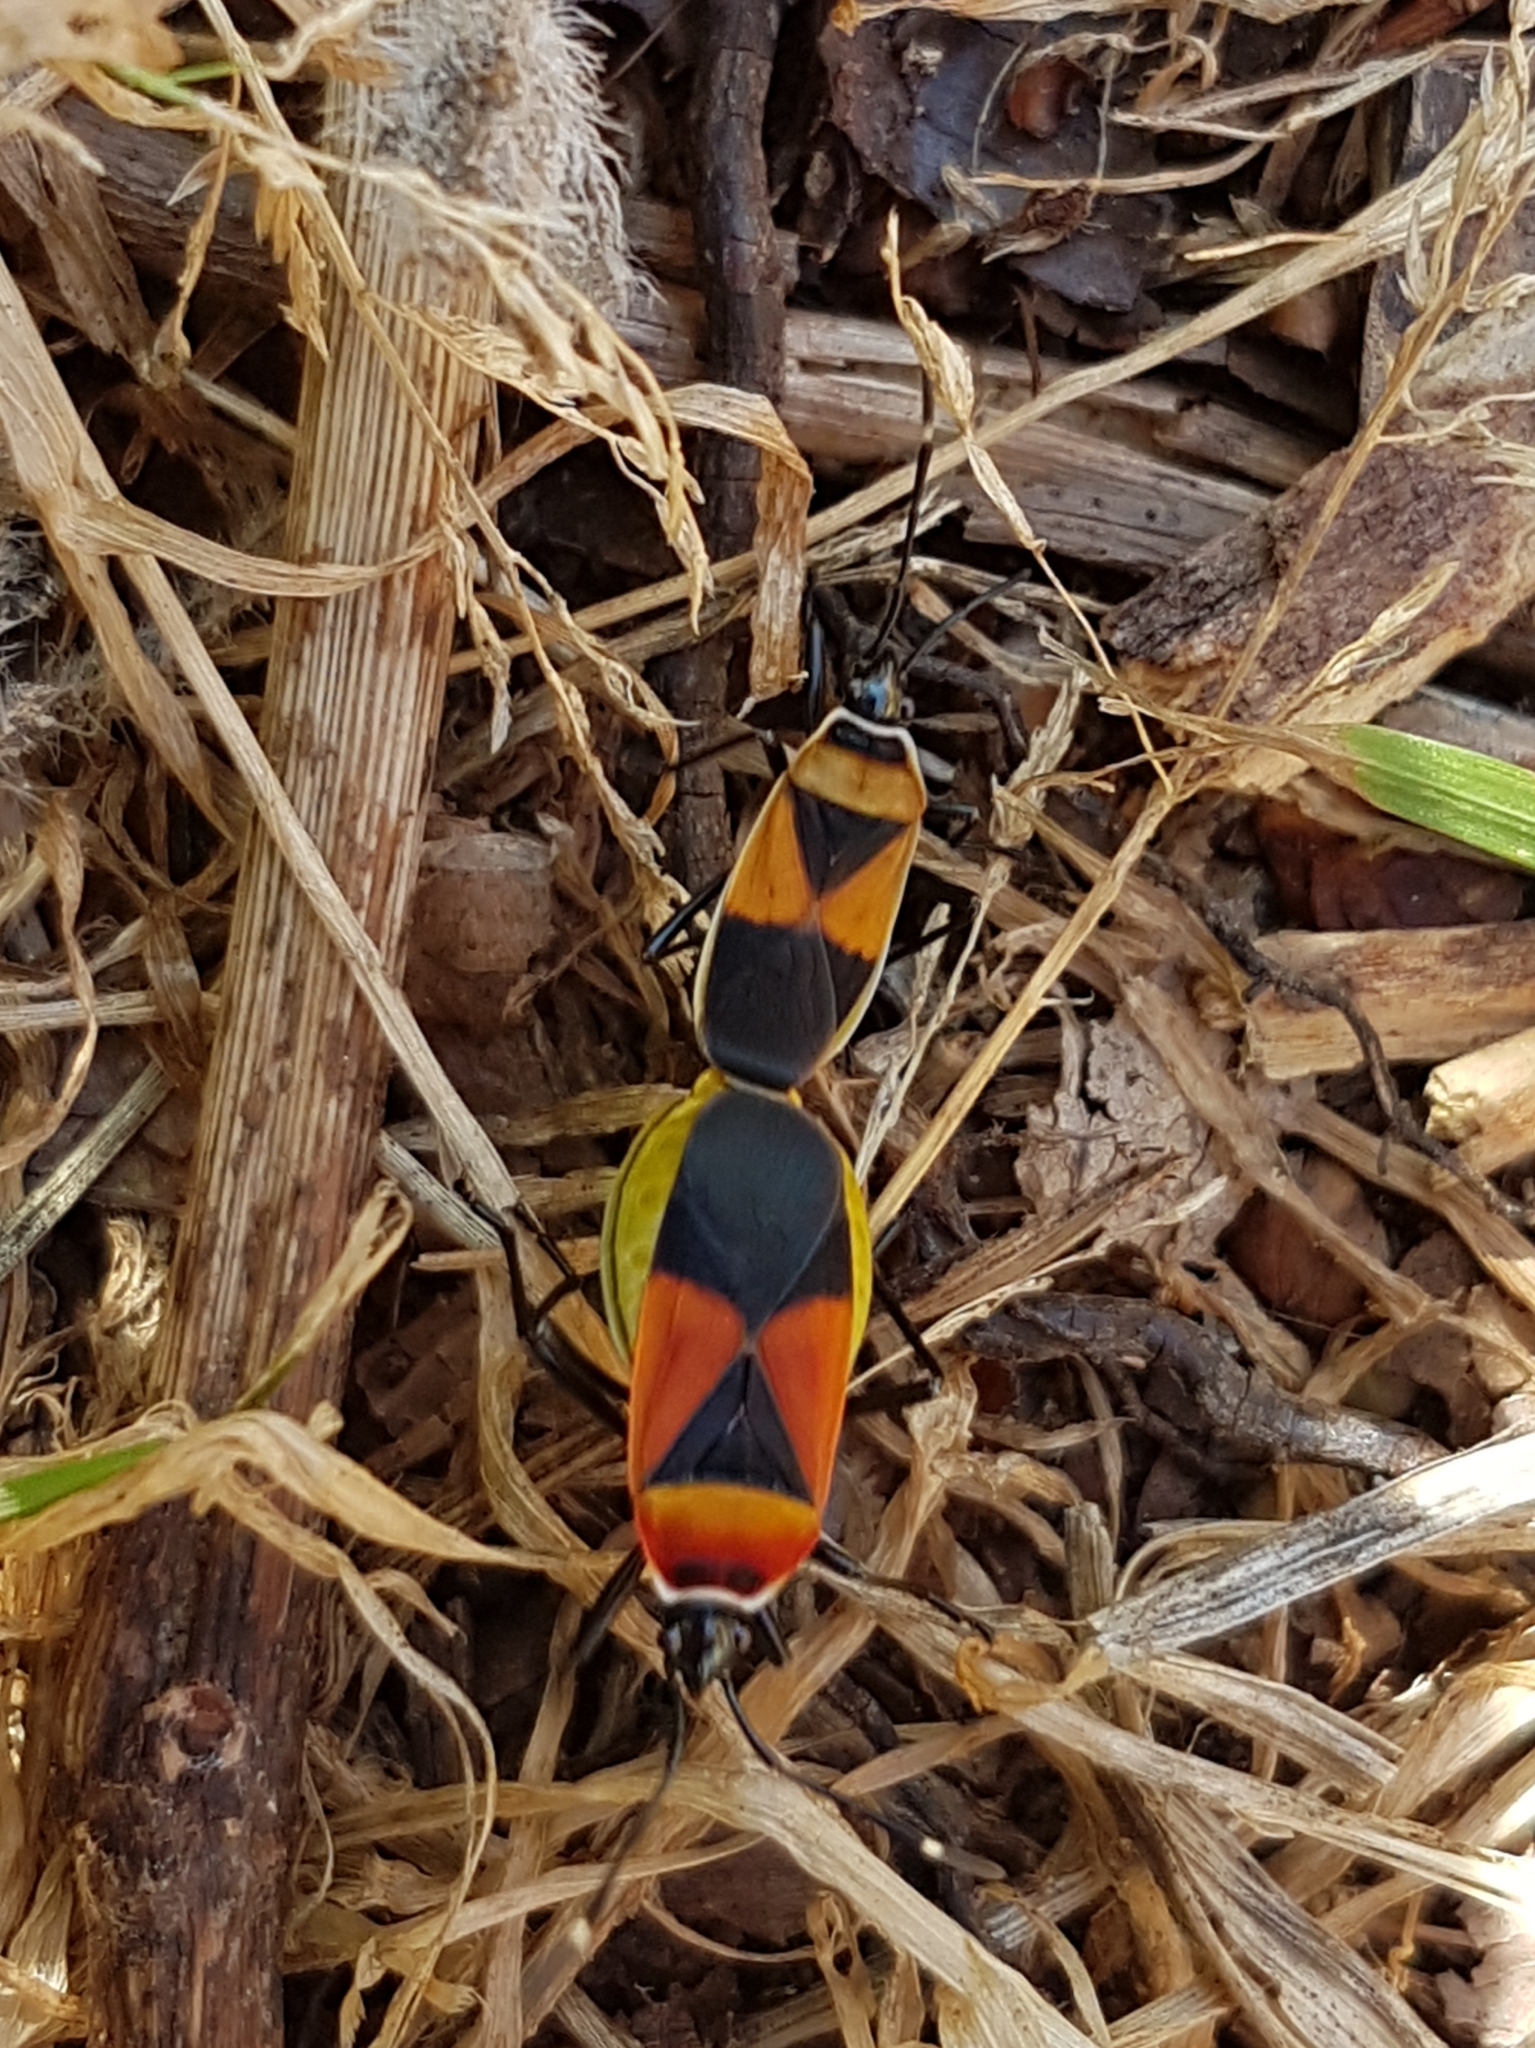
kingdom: Animalia
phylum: Arthropoda
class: Insecta
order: Hemiptera
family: Pyrrhocoridae
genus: Dindymus
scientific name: Dindymus
